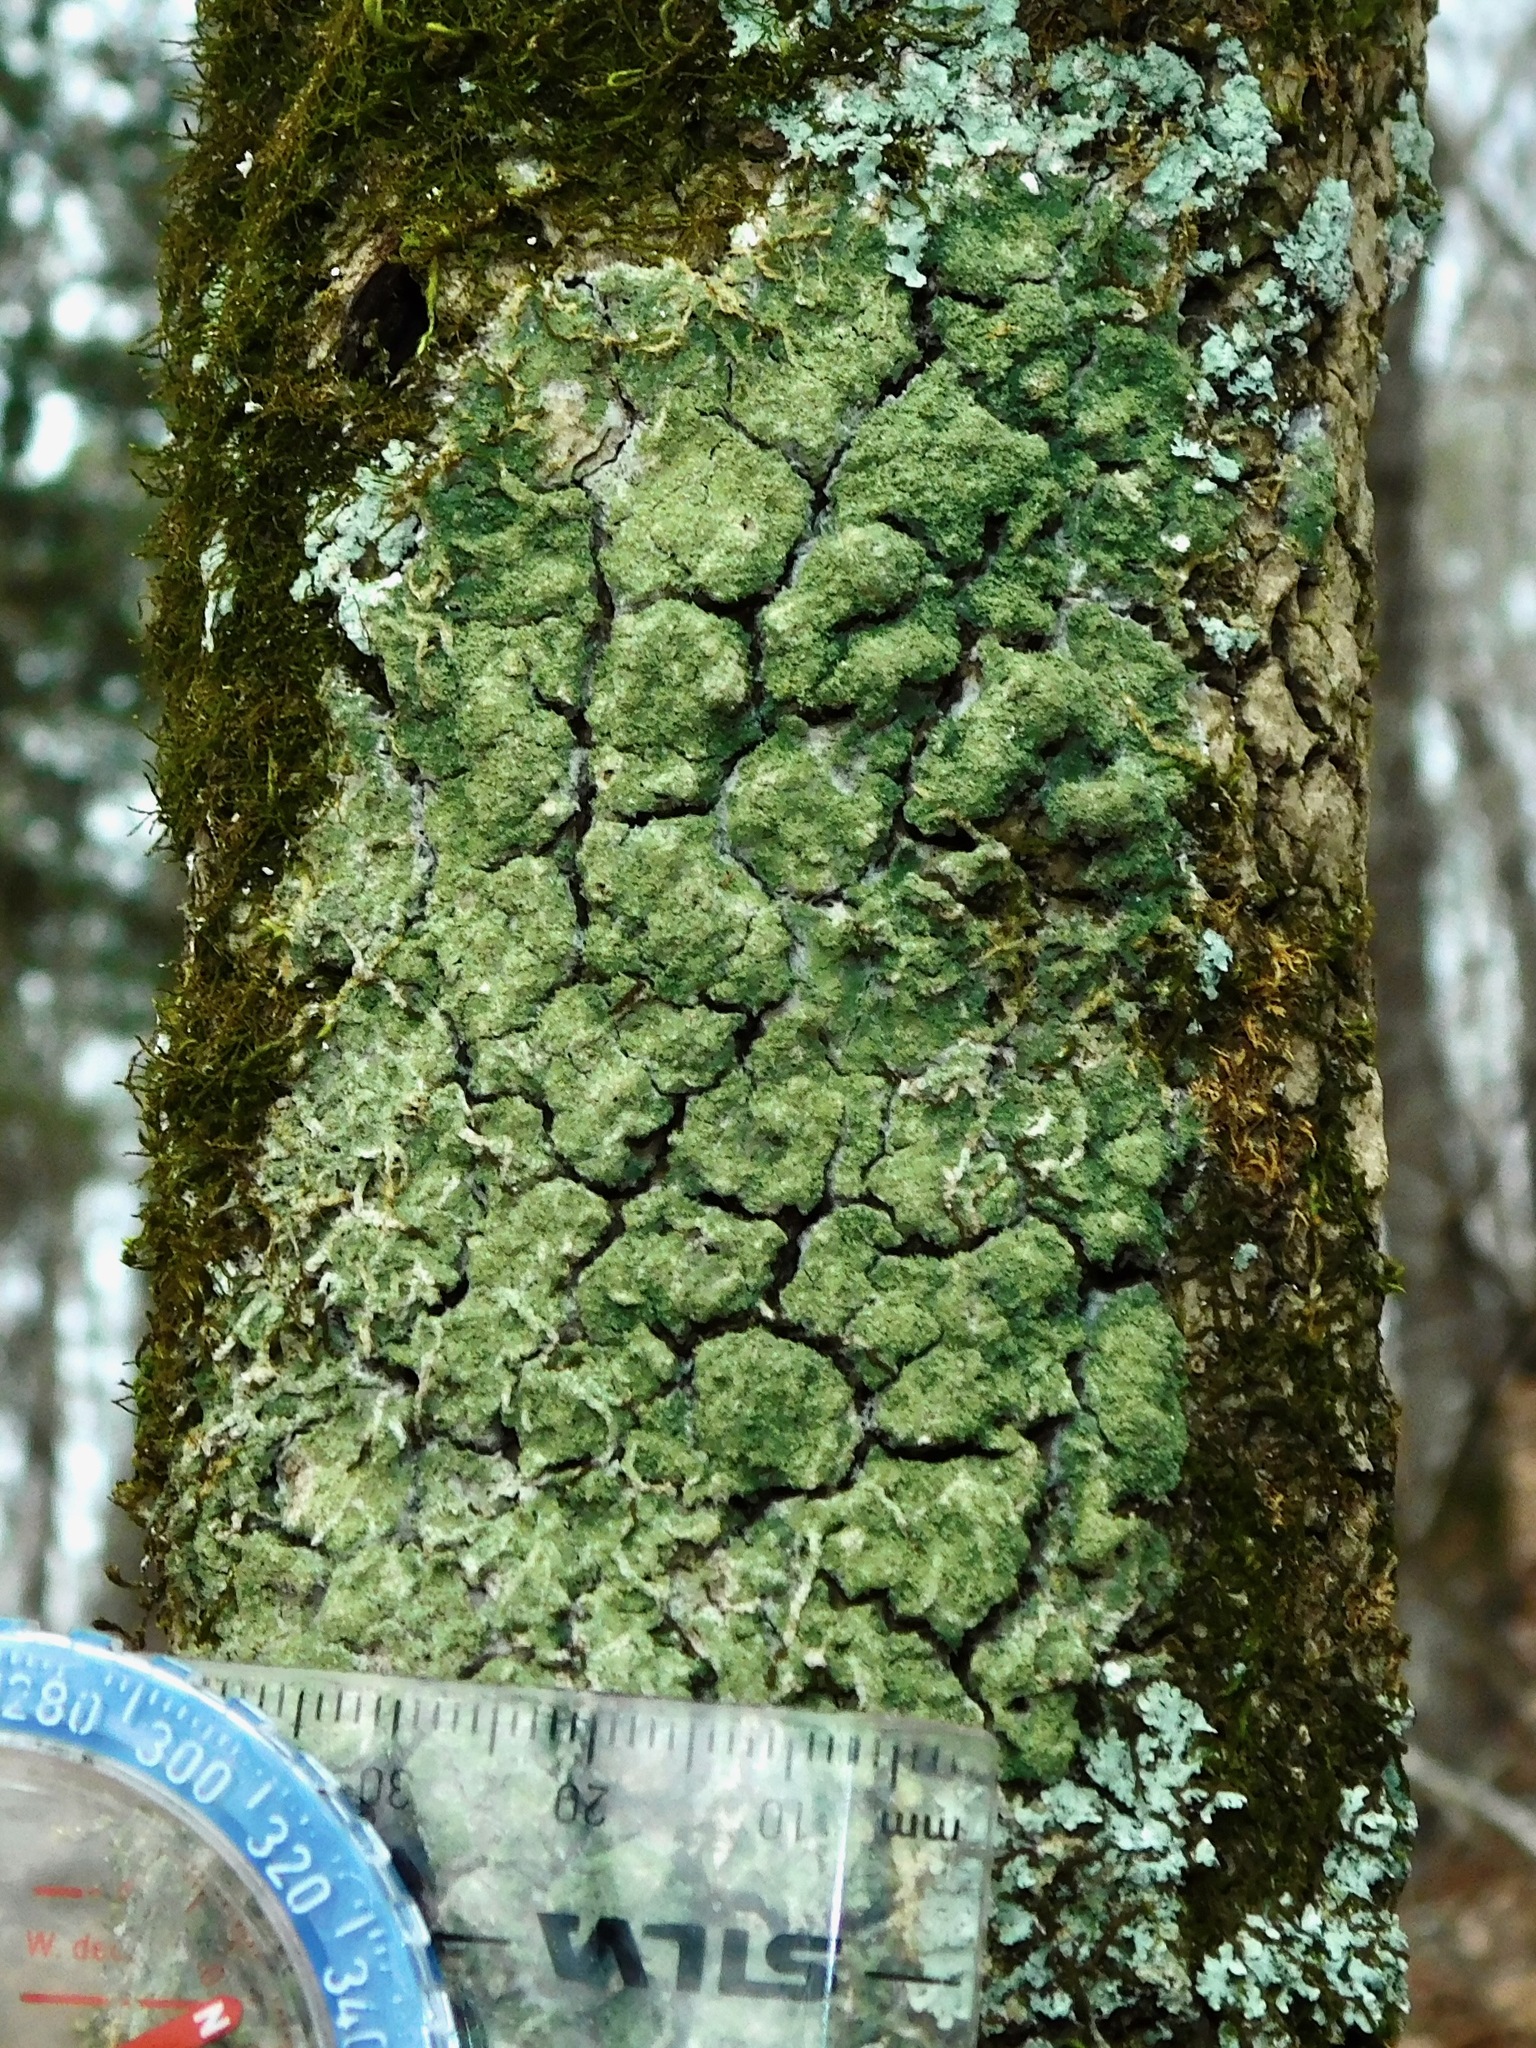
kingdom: Fungi
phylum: Ascomycota
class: Lecanoromycetes
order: Lecanorales
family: Ramalinaceae
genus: Phyllopsora
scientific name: Phyllopsora corallina
